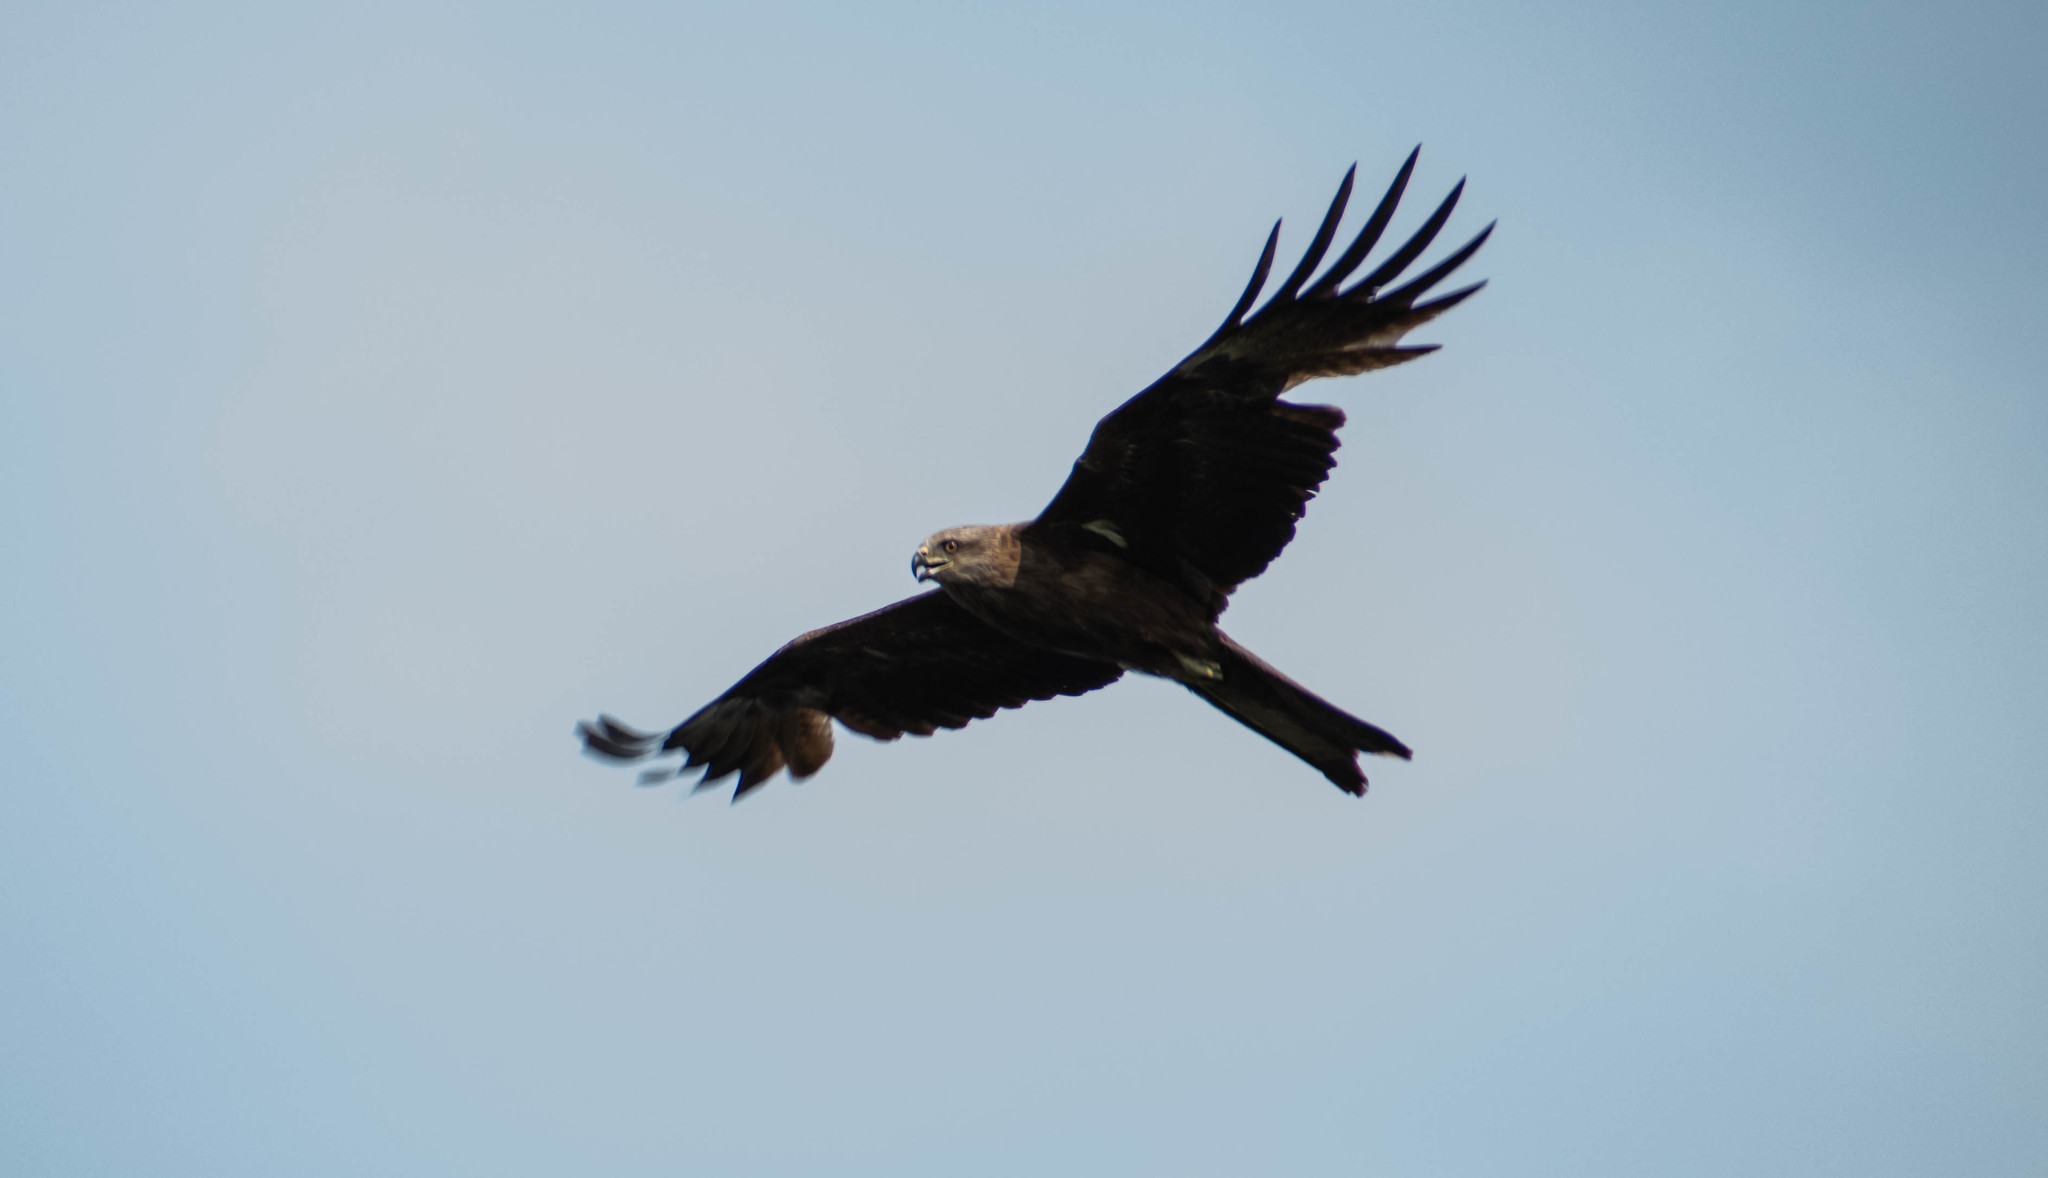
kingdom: Animalia
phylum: Chordata
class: Aves
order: Accipitriformes
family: Accipitridae
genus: Milvus
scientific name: Milvus migrans
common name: Black kite
